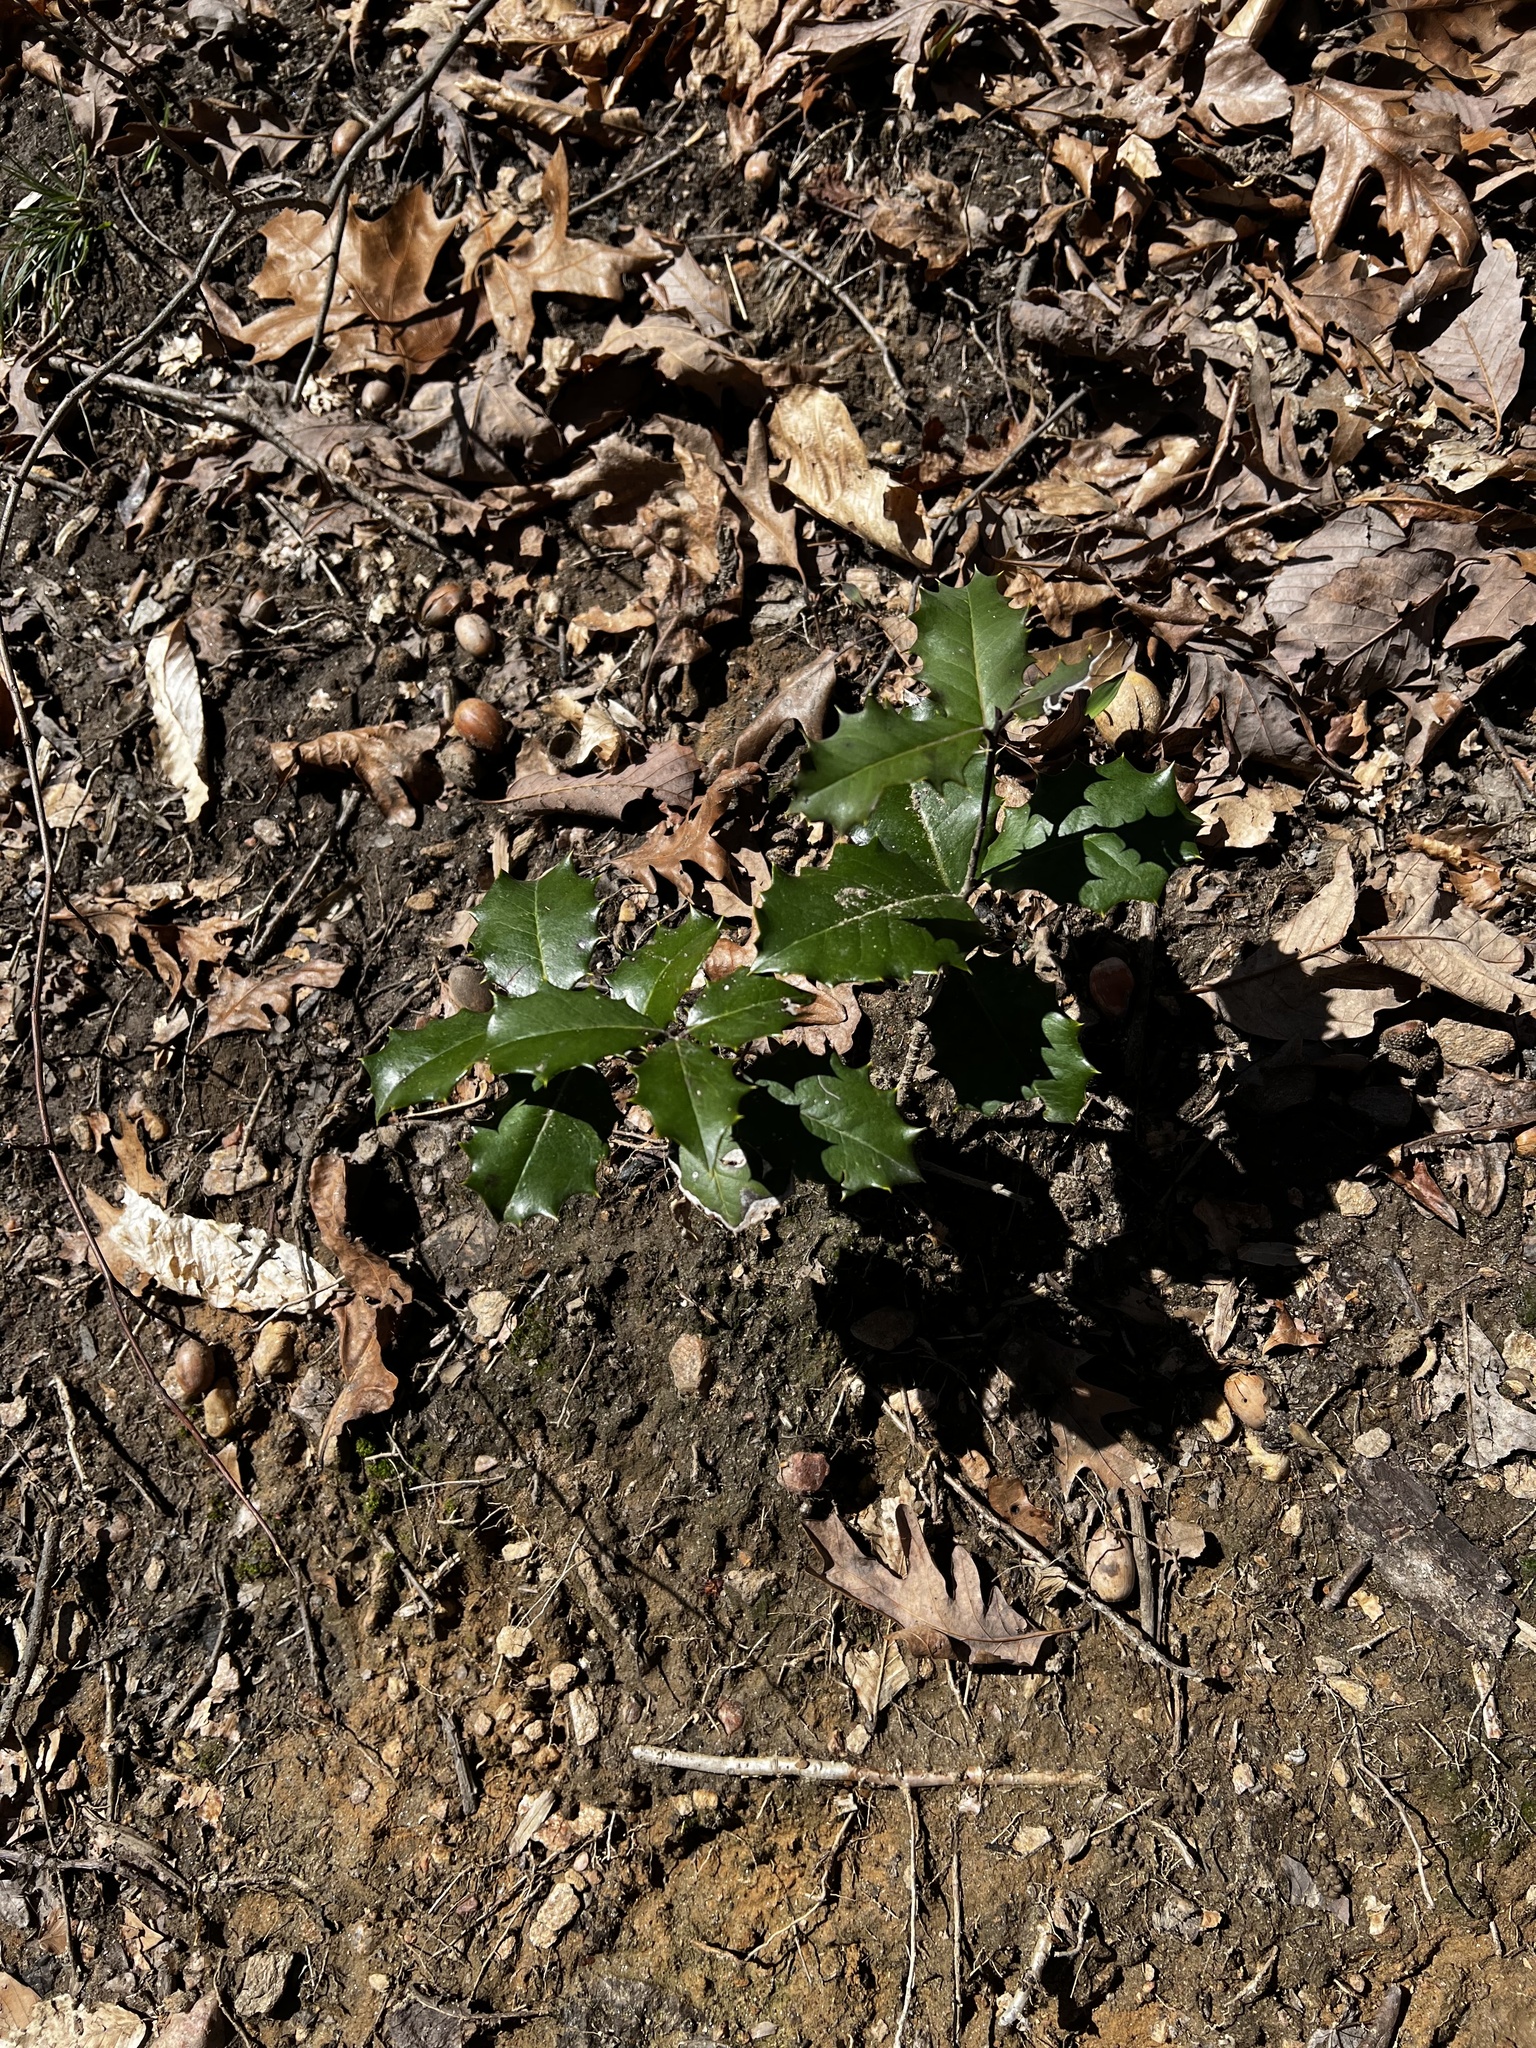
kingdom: Plantae
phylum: Tracheophyta
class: Magnoliopsida
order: Aquifoliales
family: Aquifoliaceae
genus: Ilex
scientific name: Ilex opaca
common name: American holly
